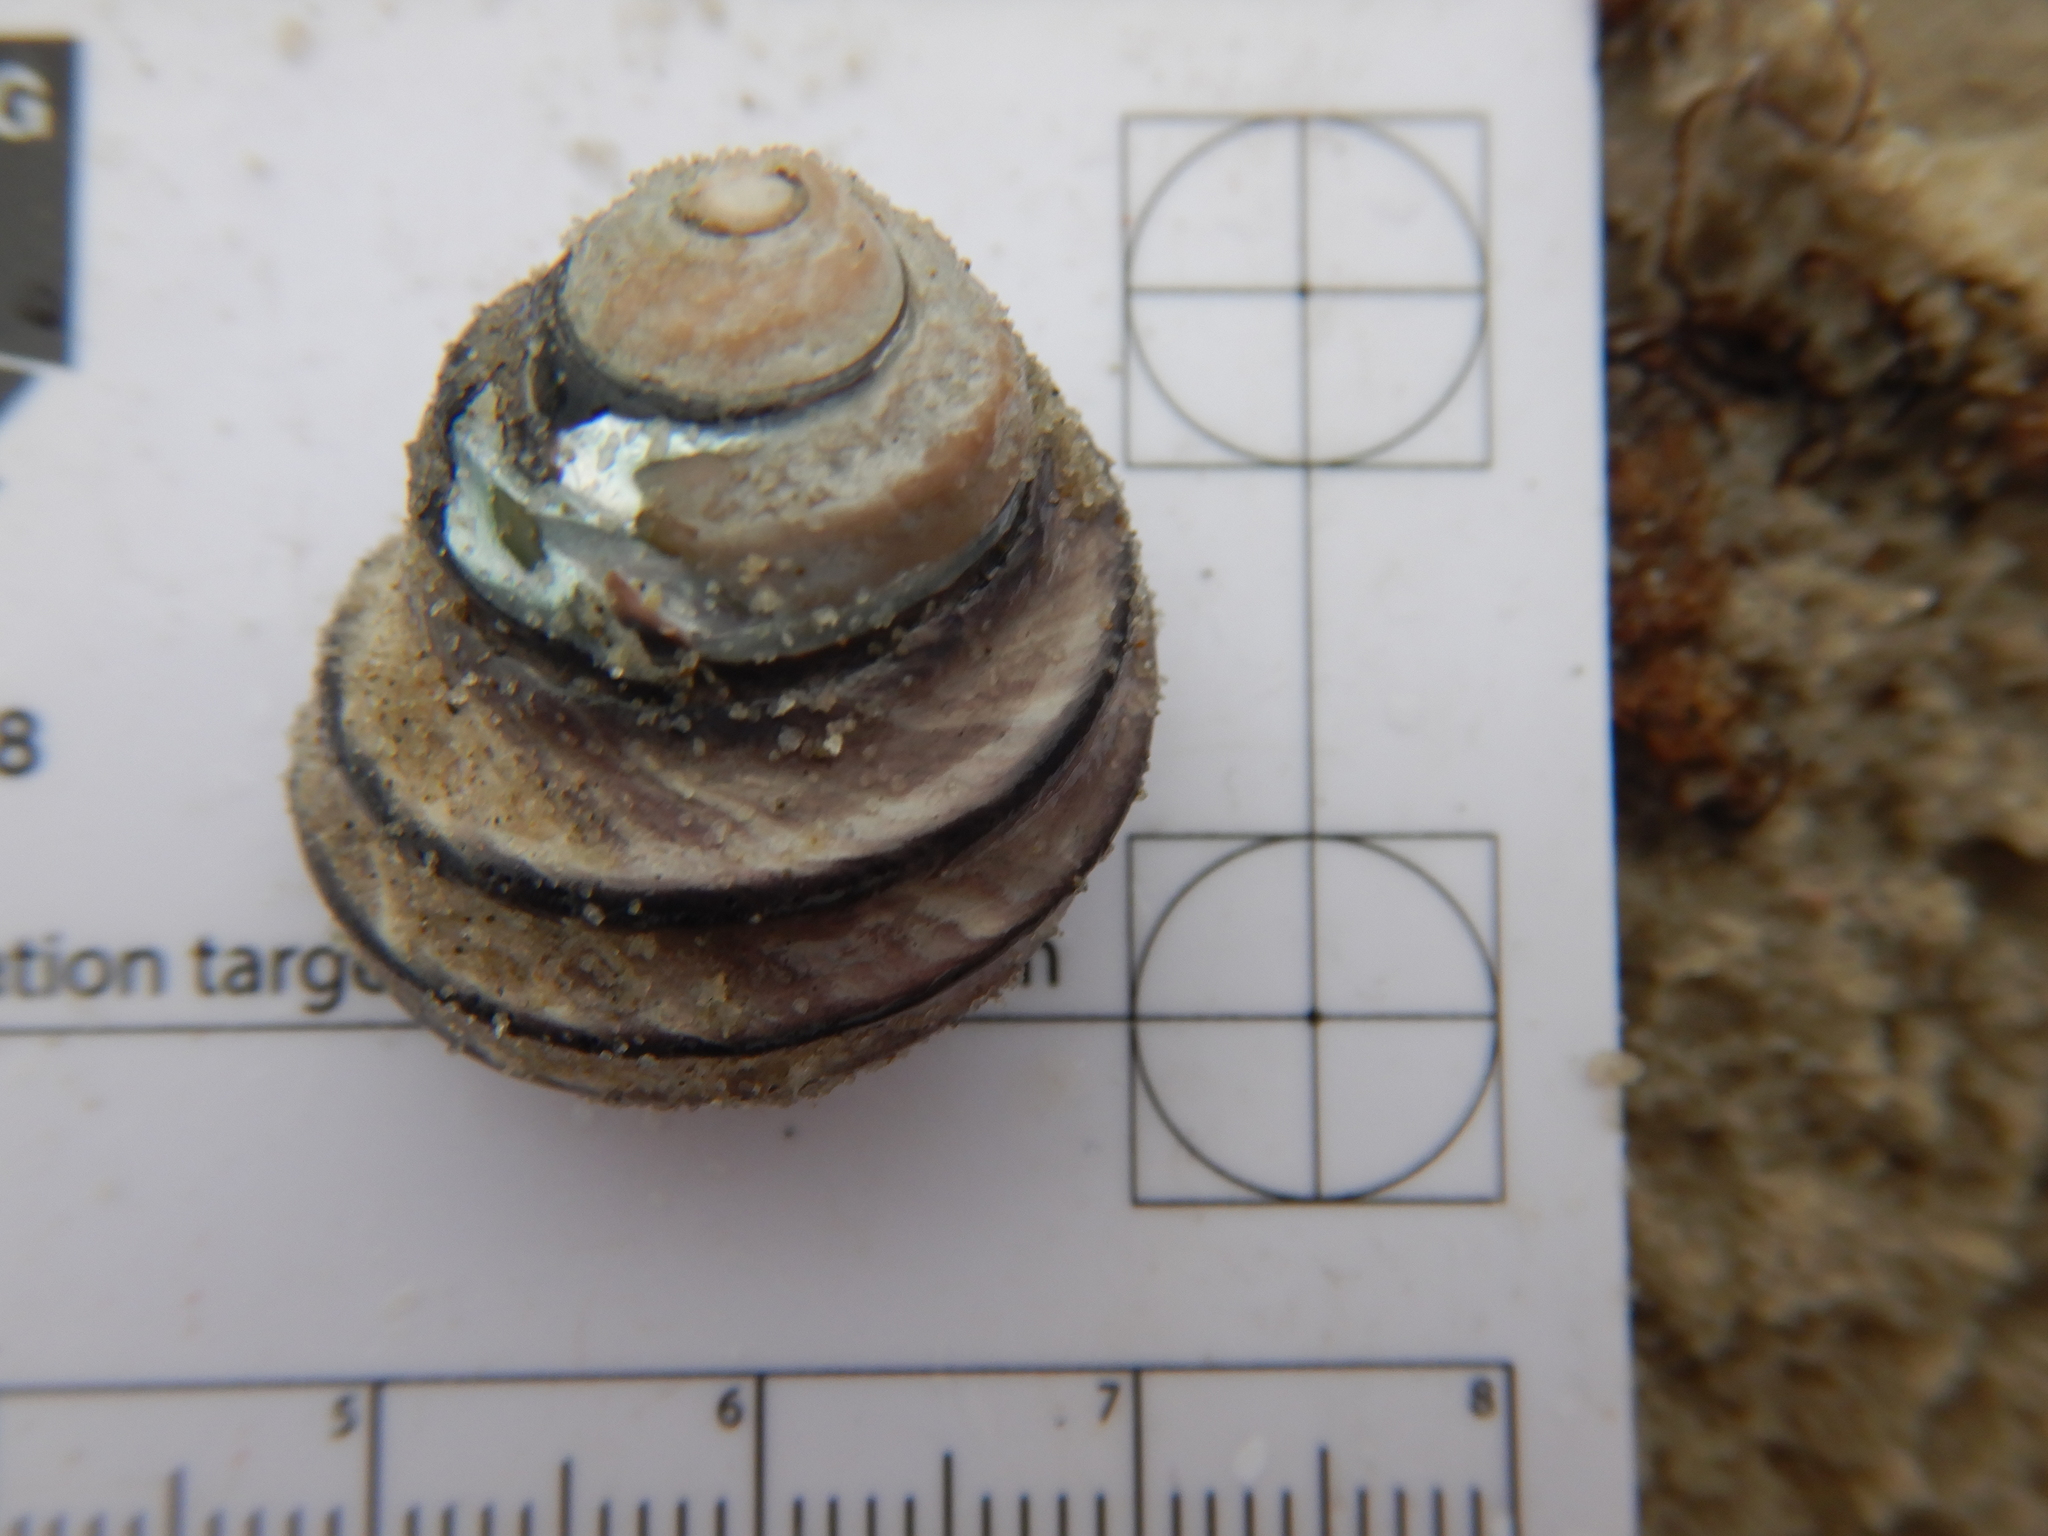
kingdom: Animalia
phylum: Mollusca
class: Gastropoda
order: Trochida
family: Trochidae
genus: Austrocochlea
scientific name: Austrocochlea constricta
